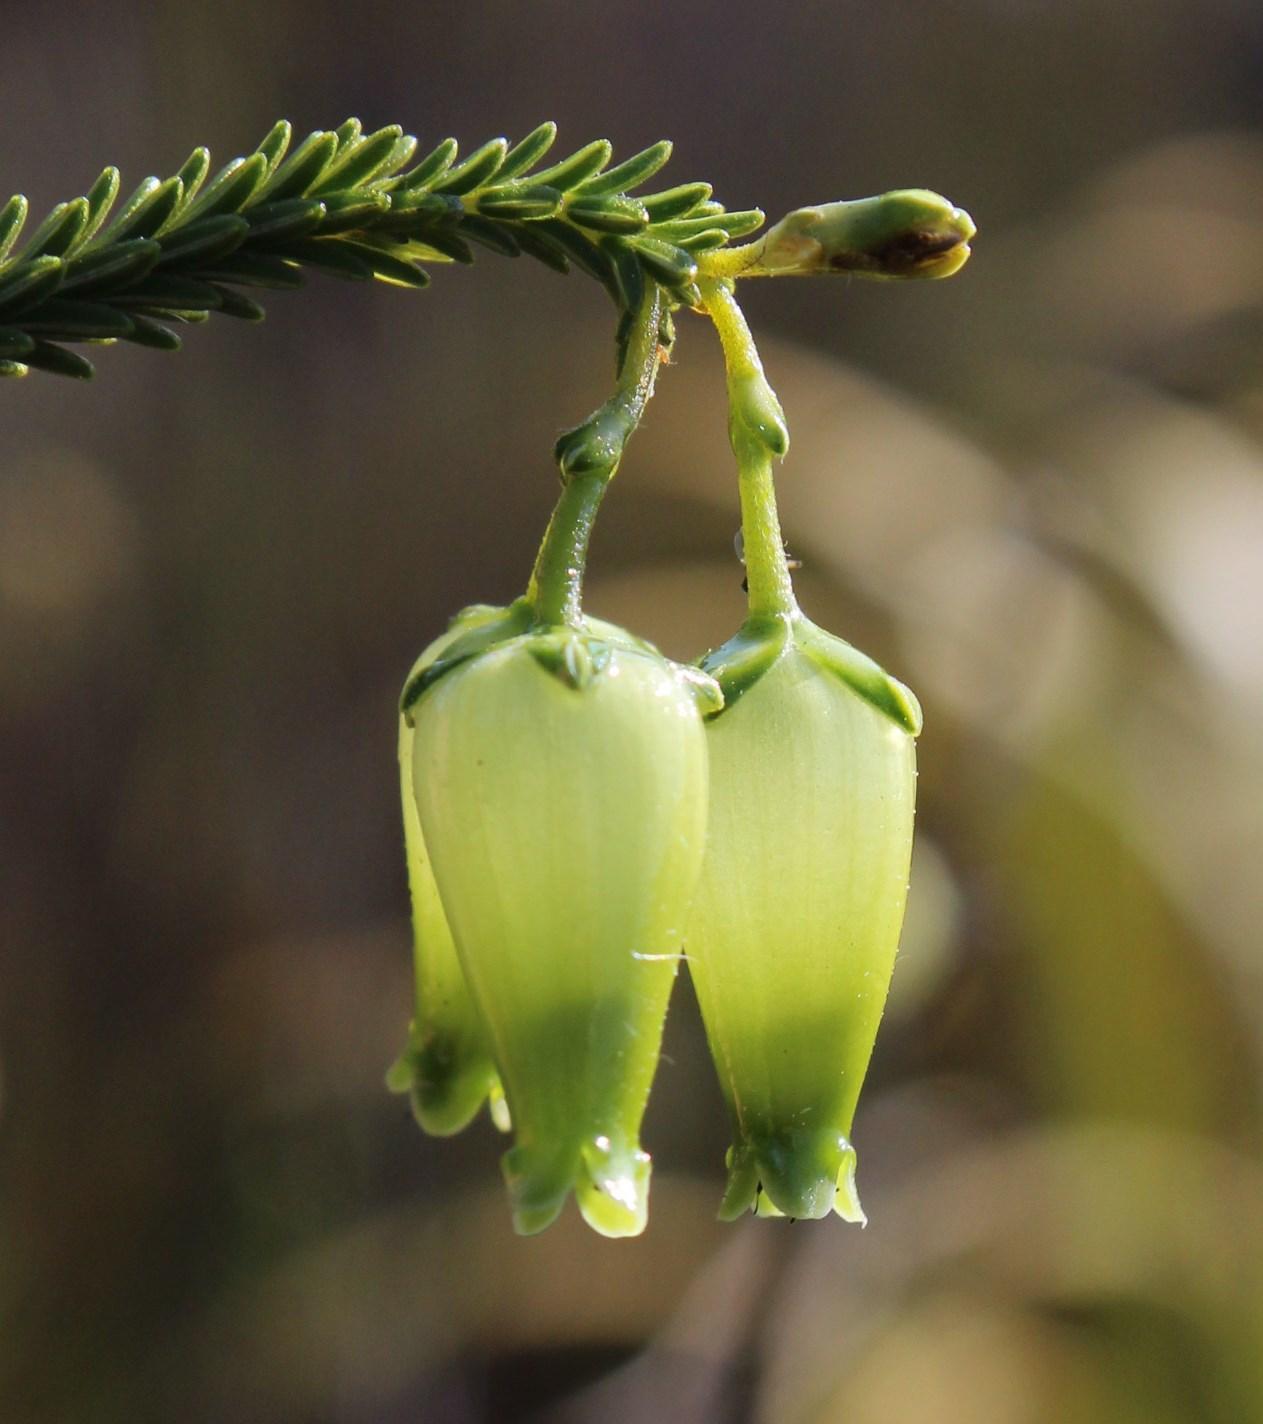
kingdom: Plantae
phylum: Tracheophyta
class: Magnoliopsida
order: Ericales
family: Ericaceae
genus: Erica
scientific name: Erica urna-viridis
